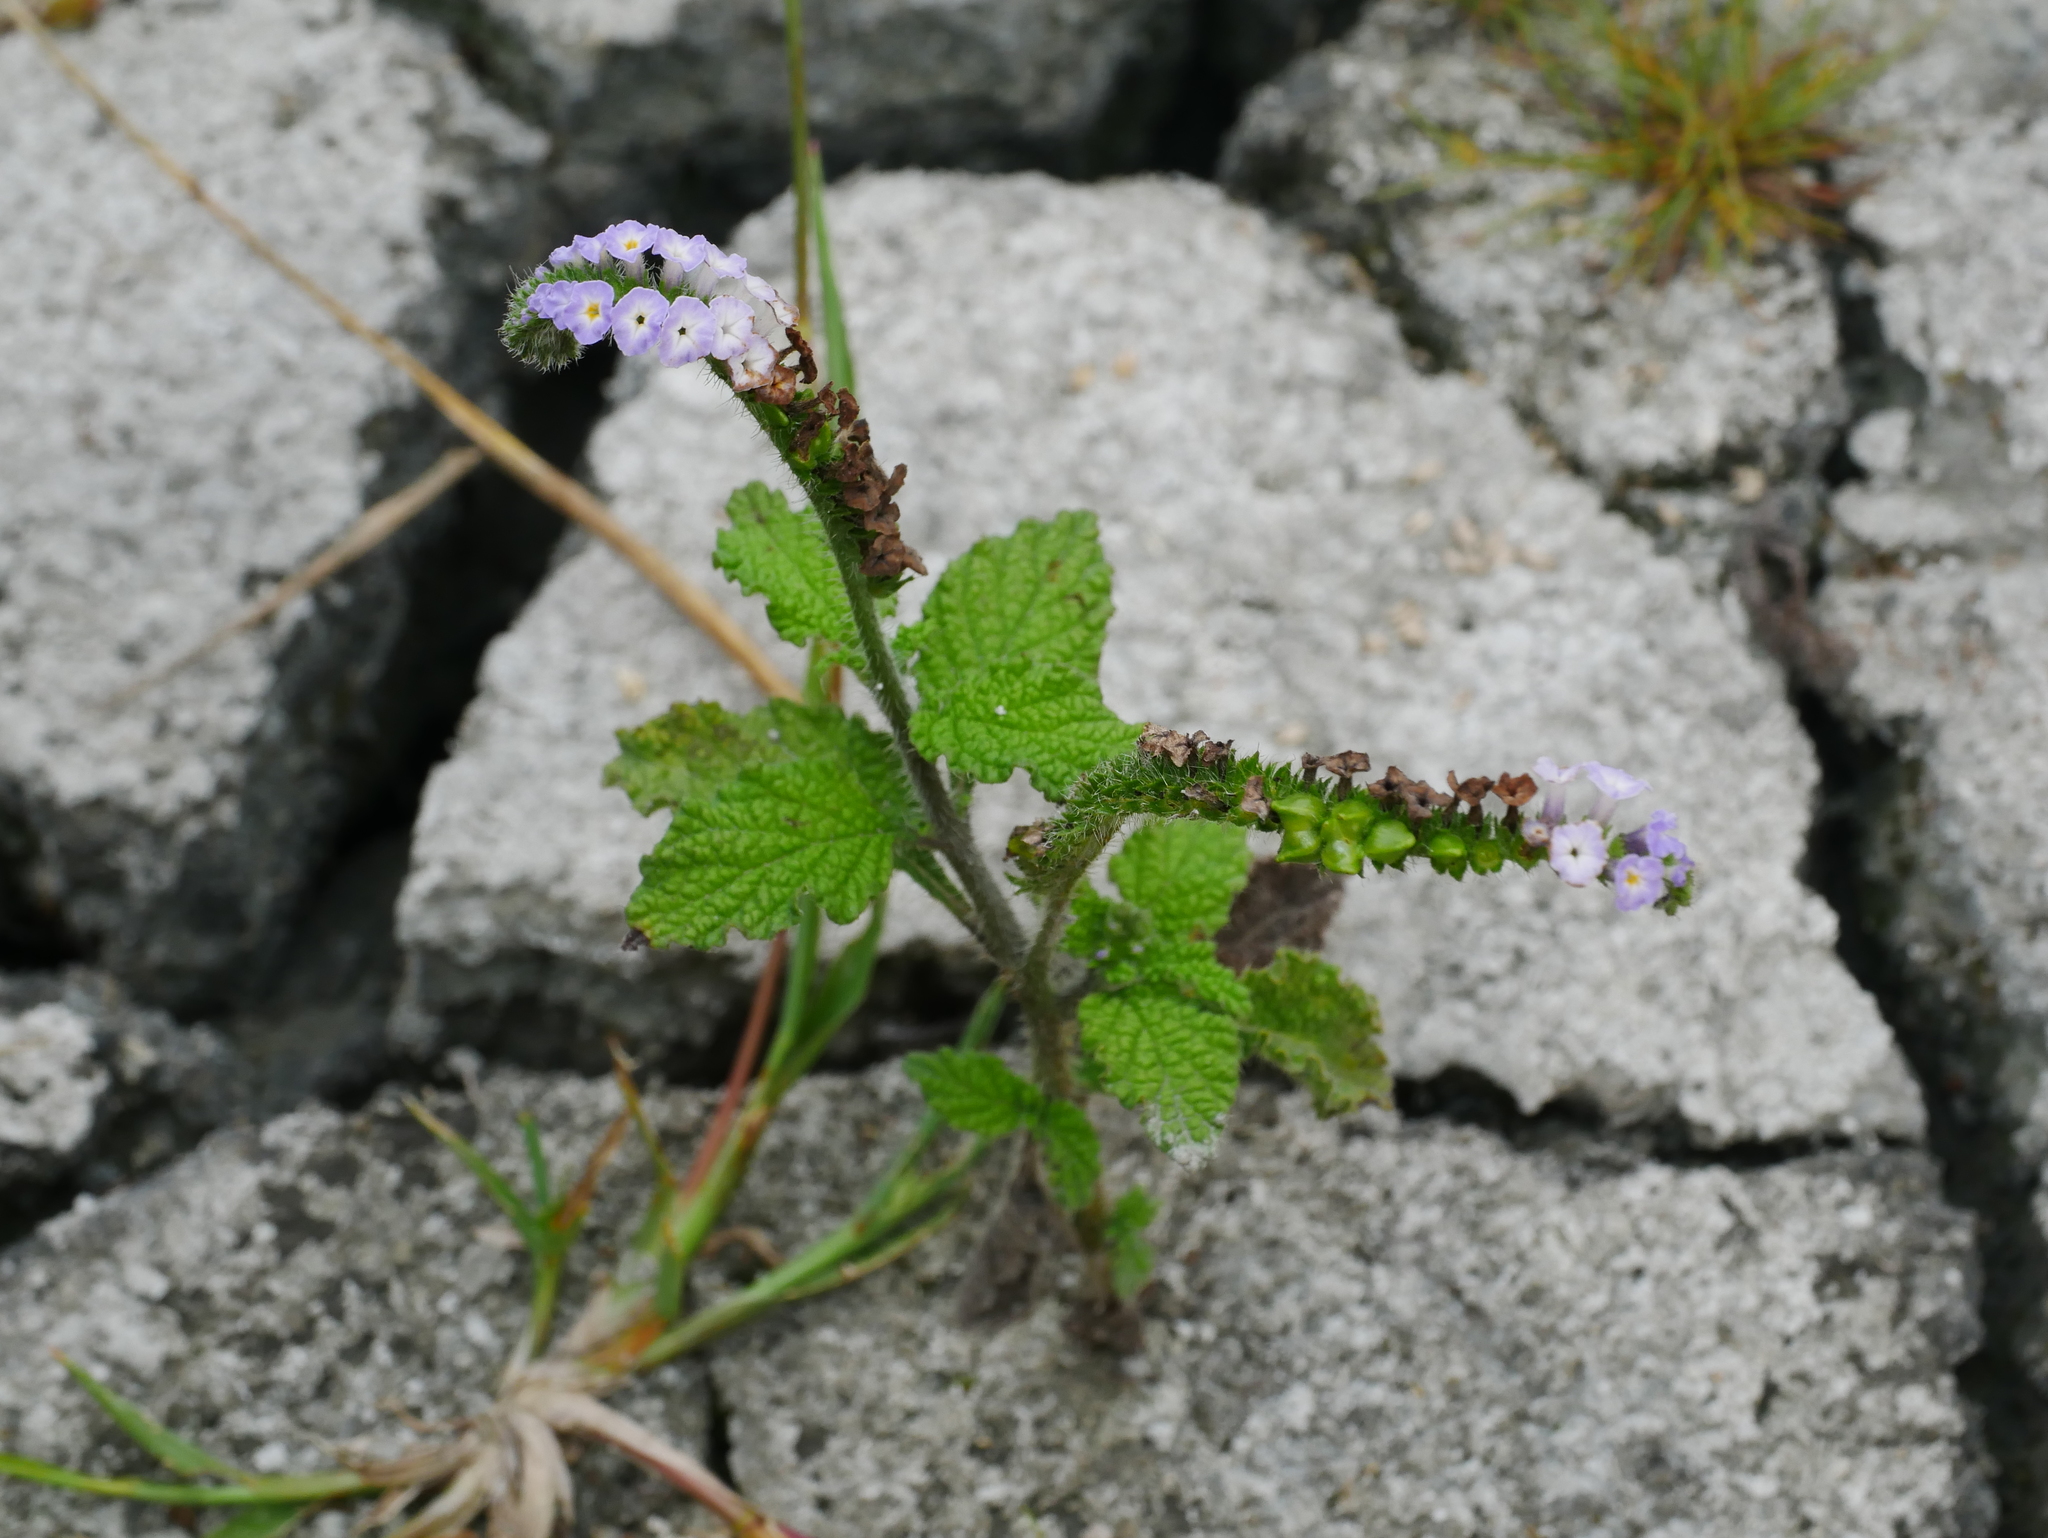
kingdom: Plantae
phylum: Tracheophyta
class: Magnoliopsida
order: Boraginales
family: Heliotropiaceae
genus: Heliotropium
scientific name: Heliotropium indicum
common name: Indian heliotrope
